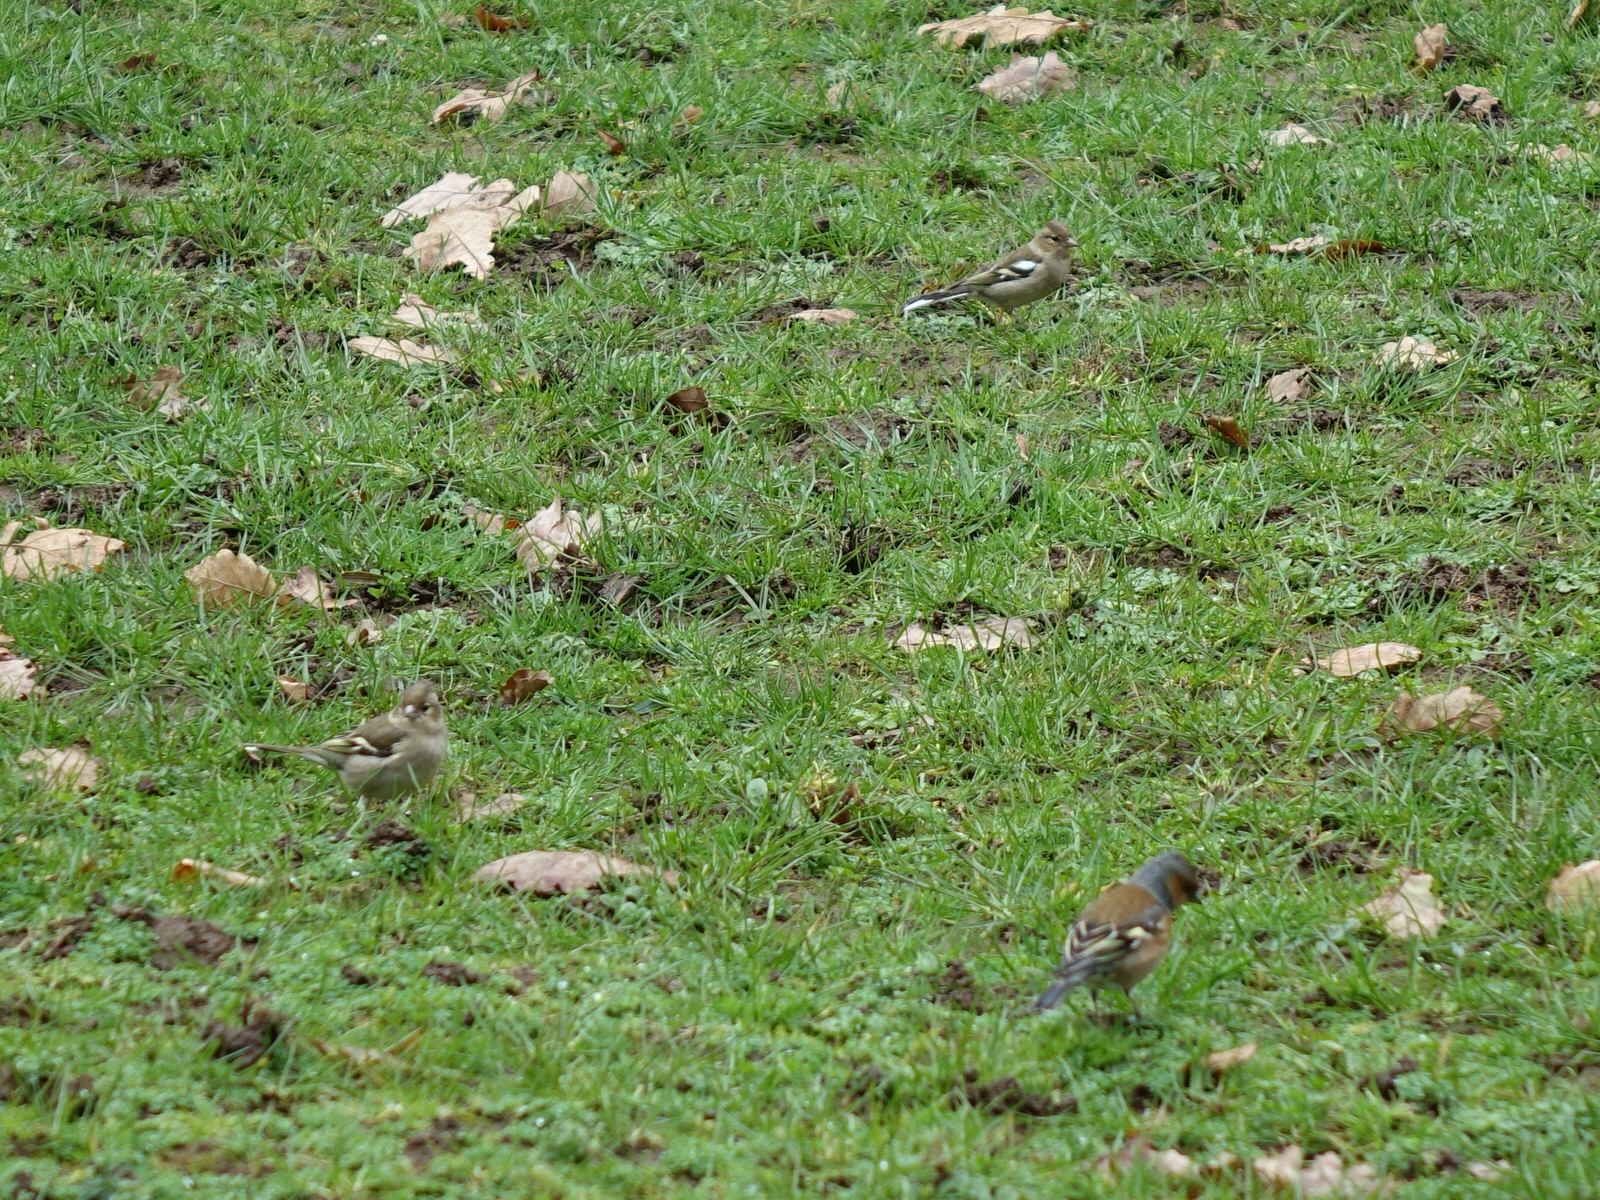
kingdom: Animalia
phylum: Chordata
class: Aves
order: Passeriformes
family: Fringillidae
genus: Fringilla
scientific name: Fringilla coelebs
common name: Common chaffinch
